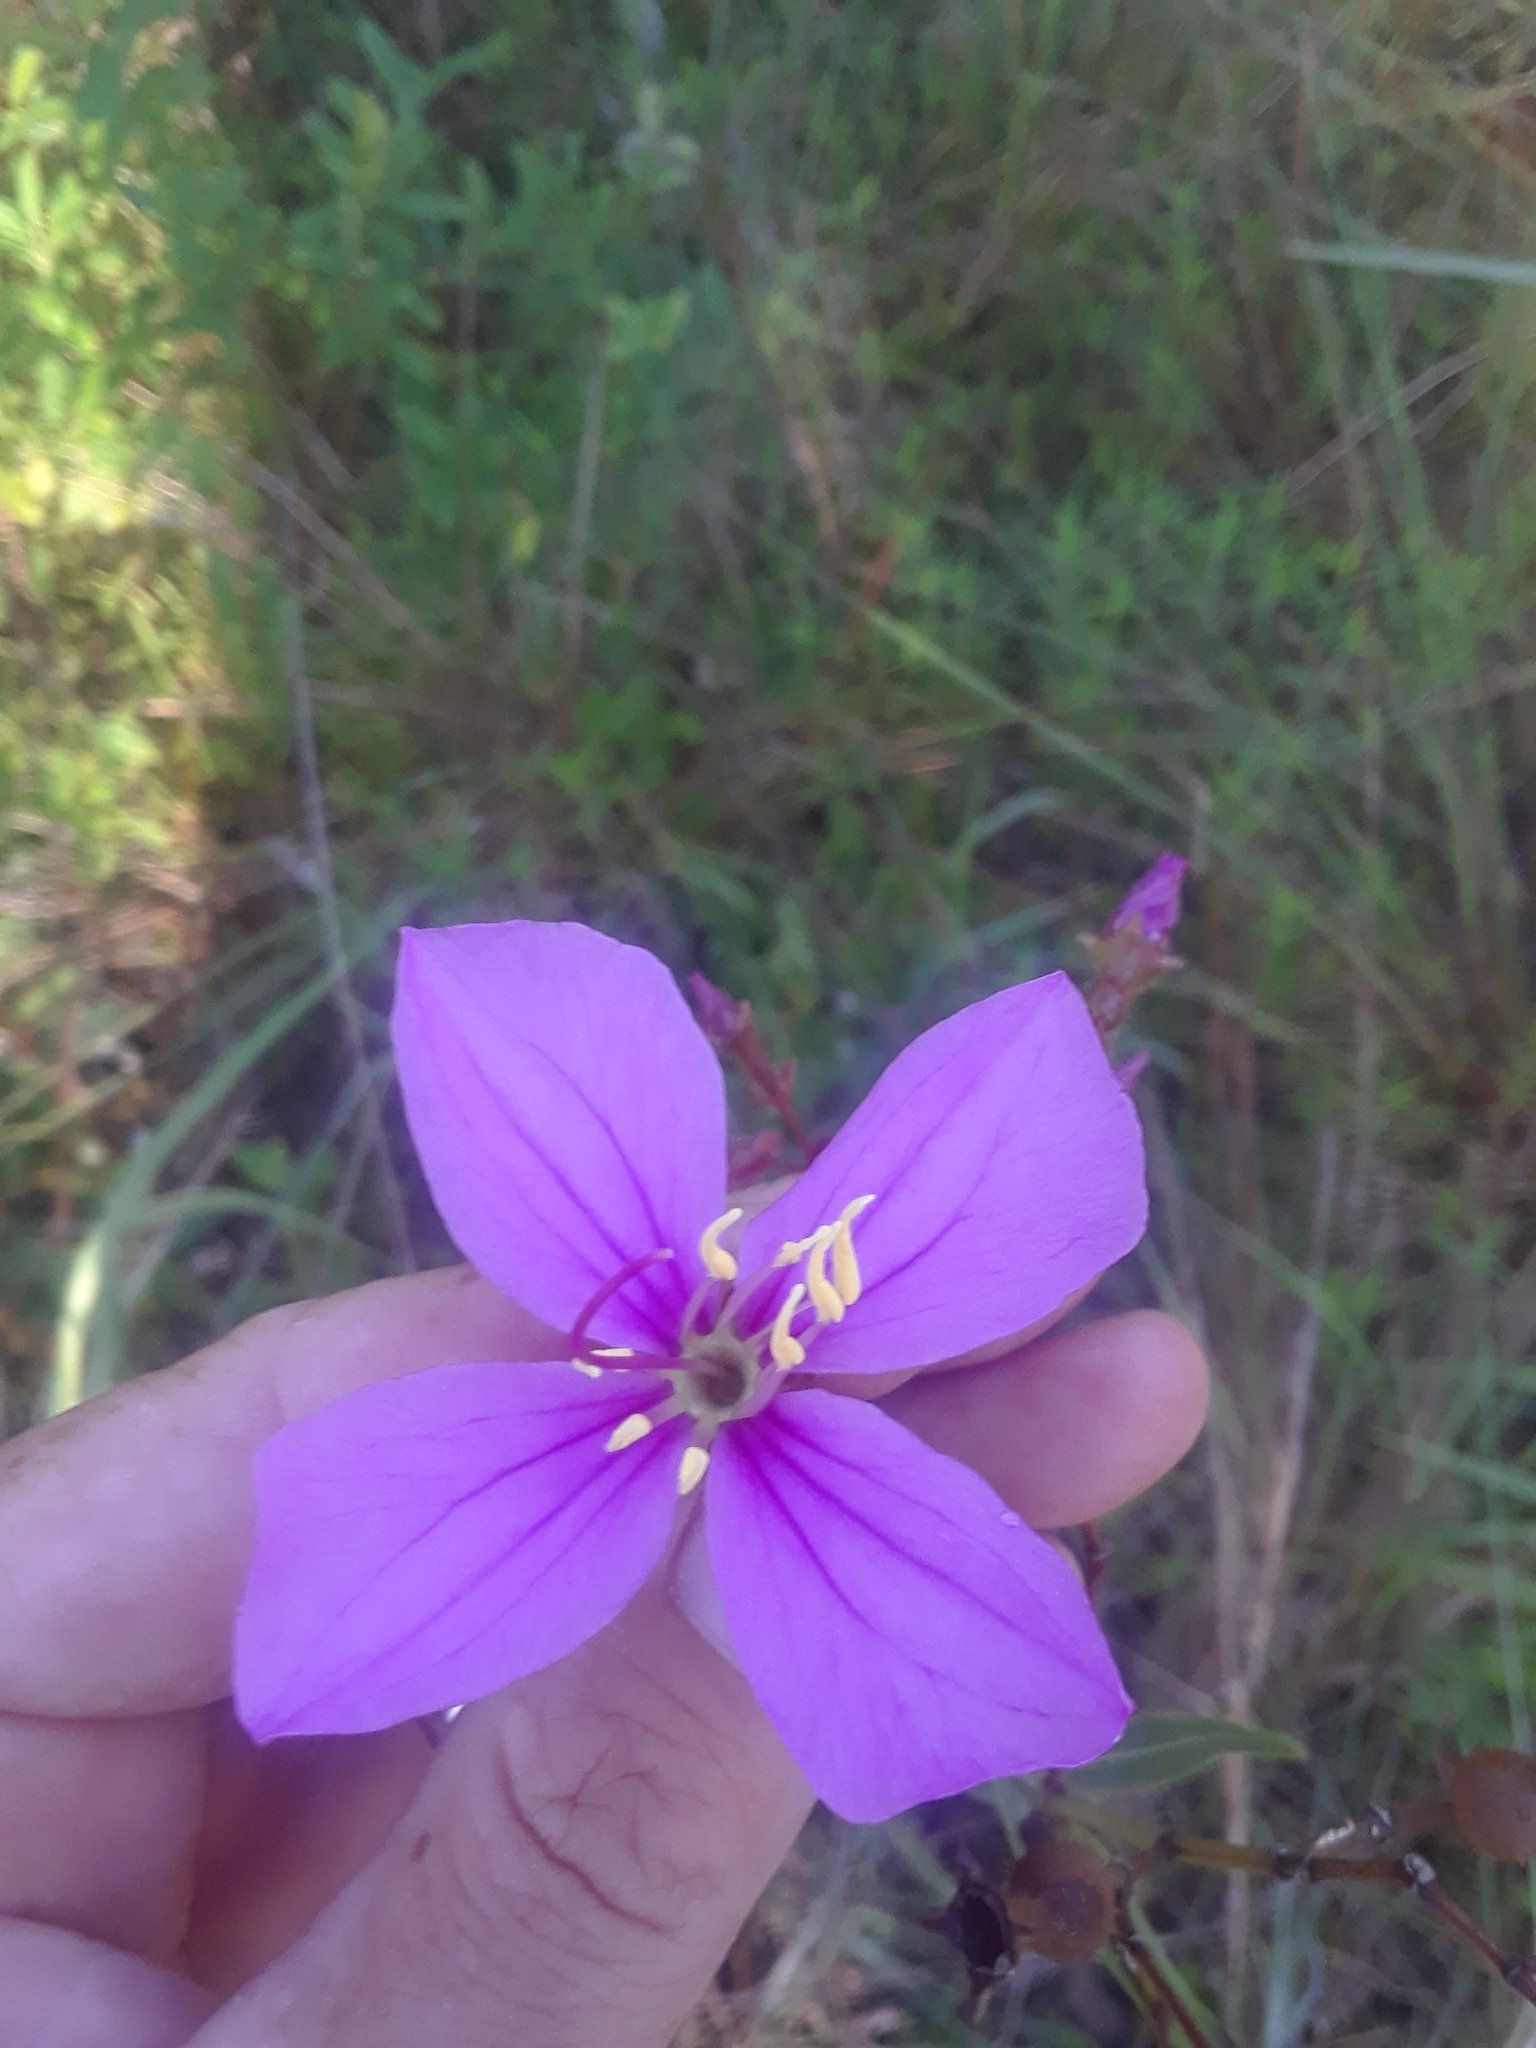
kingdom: Plantae
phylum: Tracheophyta
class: Magnoliopsida
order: Myrtales
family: Melastomataceae
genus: Rhexia
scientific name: Rhexia alifanus
